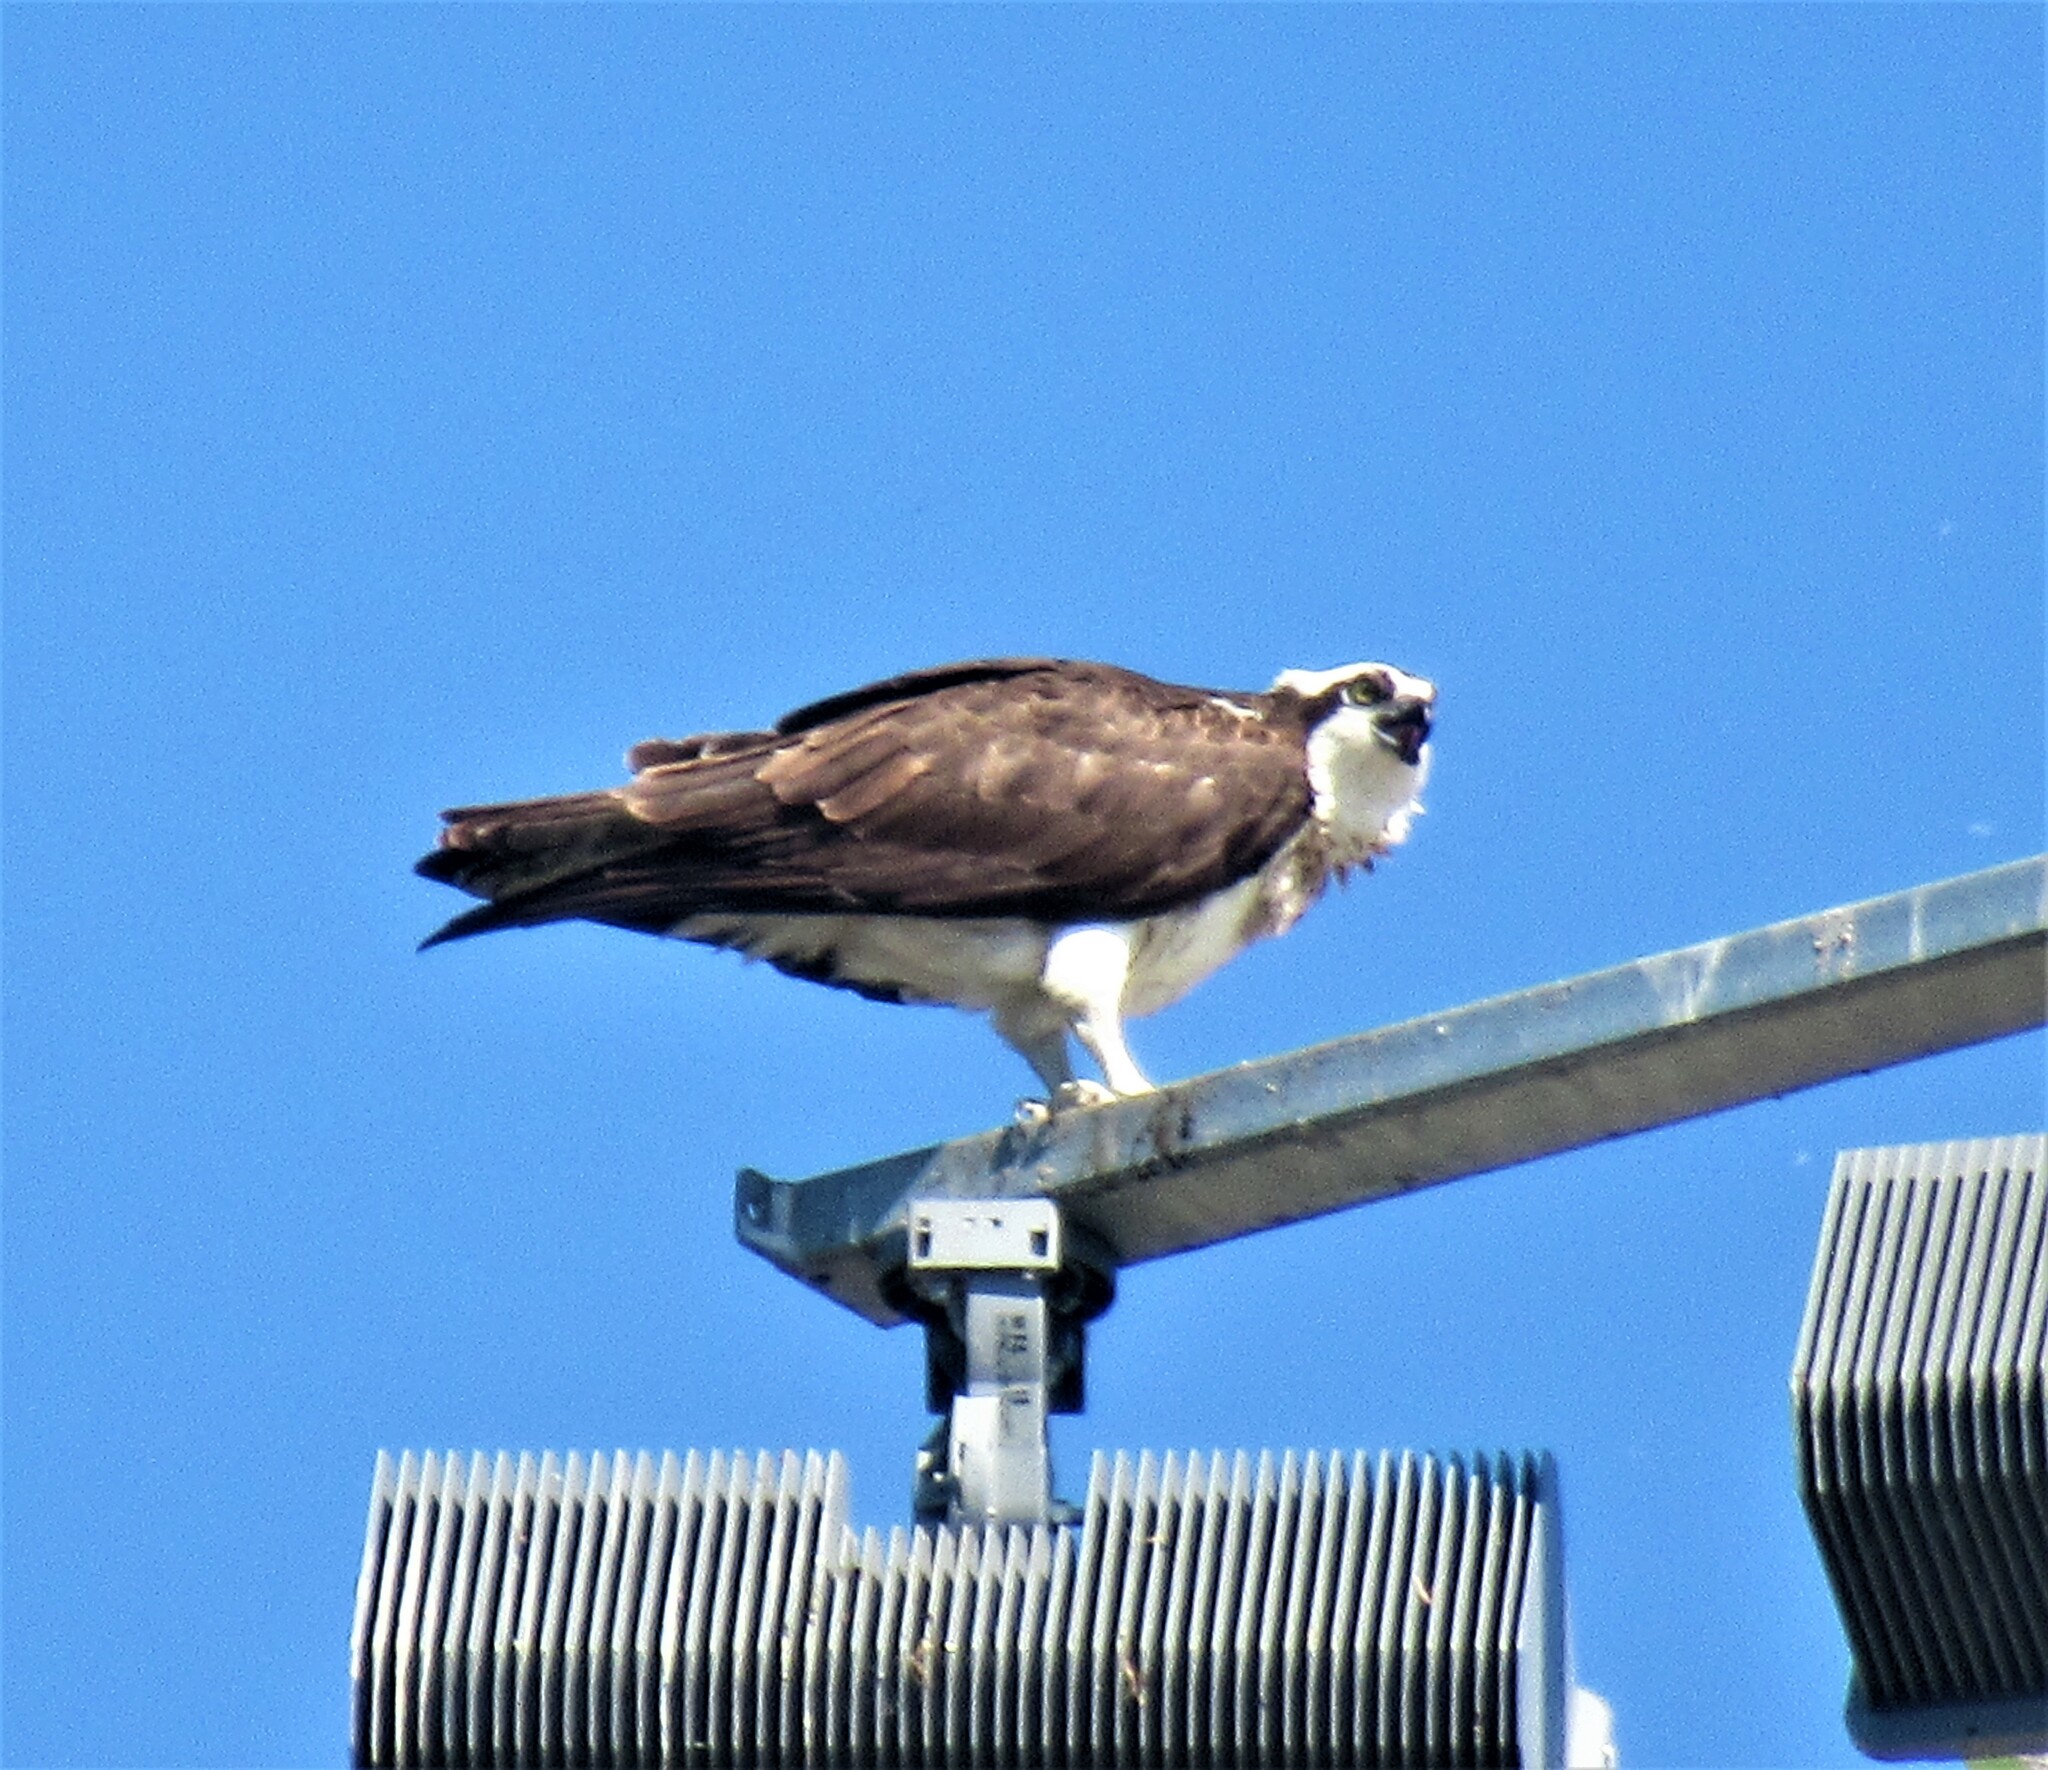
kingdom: Animalia
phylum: Chordata
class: Aves
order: Accipitriformes
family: Pandionidae
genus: Pandion
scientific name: Pandion haliaetus
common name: Osprey
